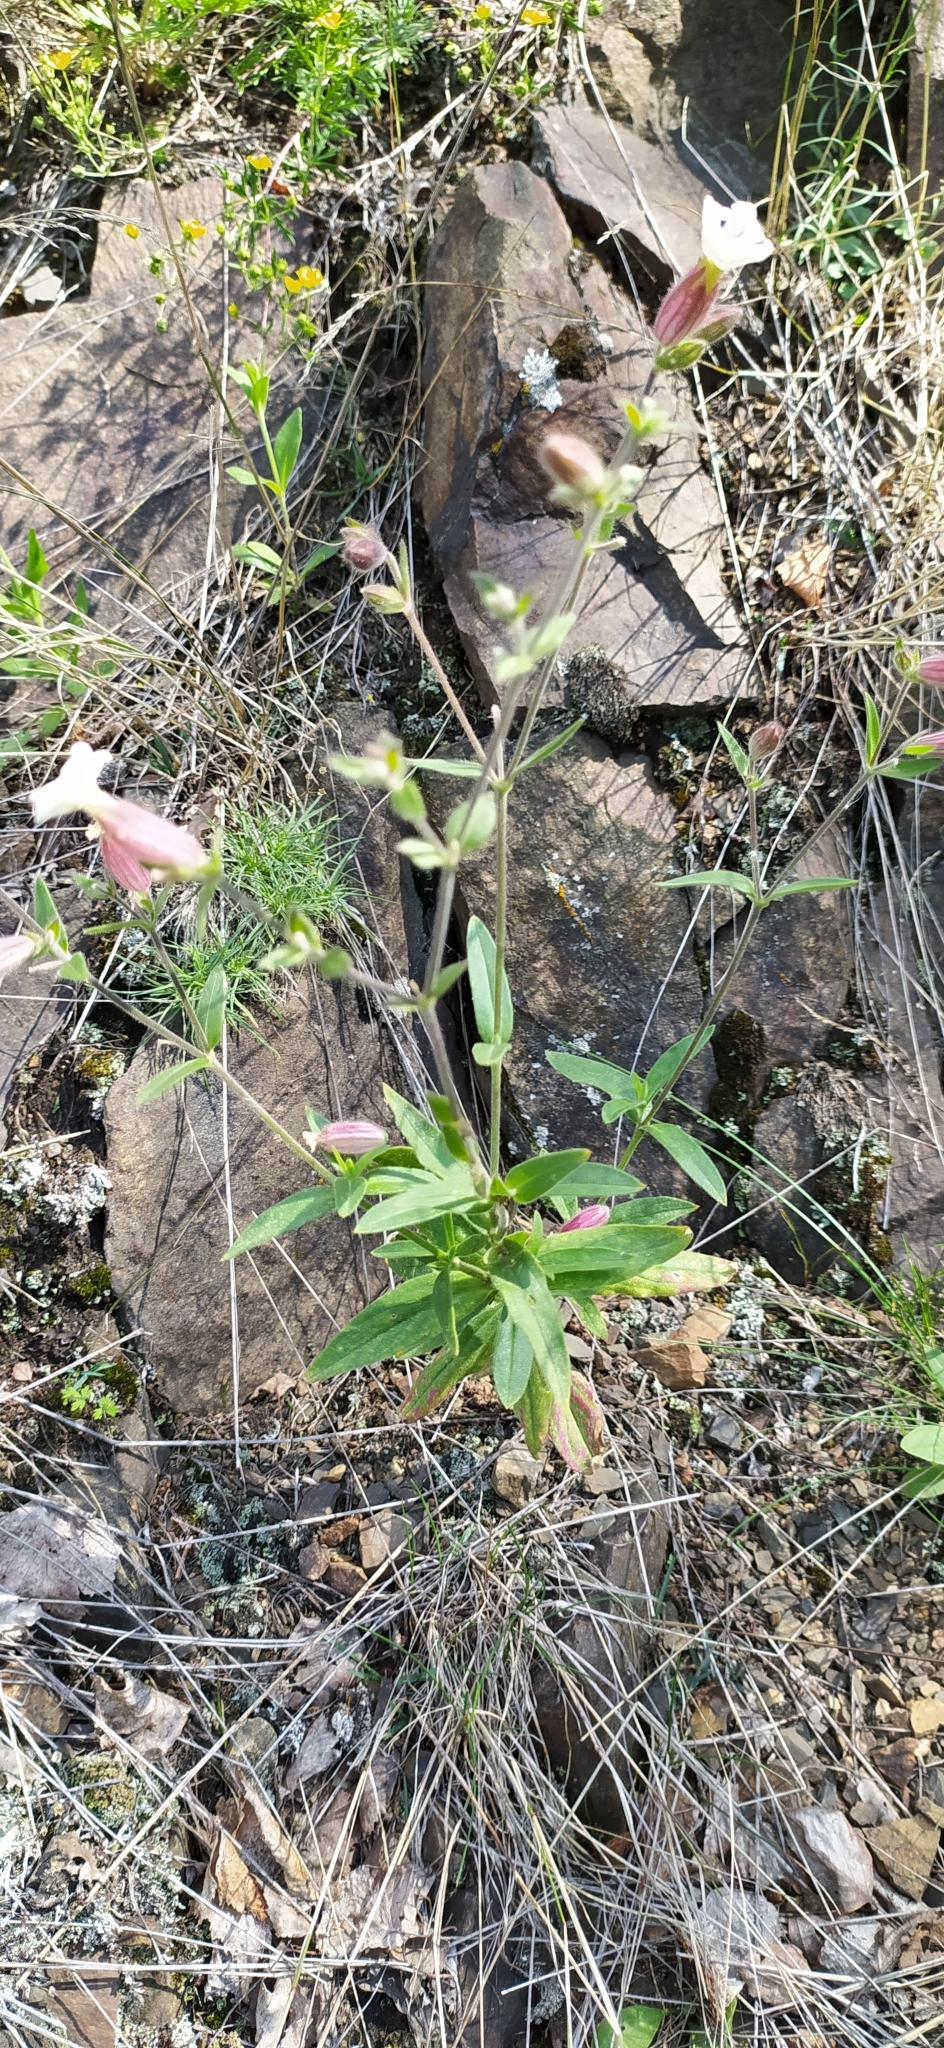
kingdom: Plantae
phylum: Tracheophyta
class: Magnoliopsida
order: Caryophyllales
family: Caryophyllaceae
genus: Silene
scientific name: Silene latifolia
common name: White campion
